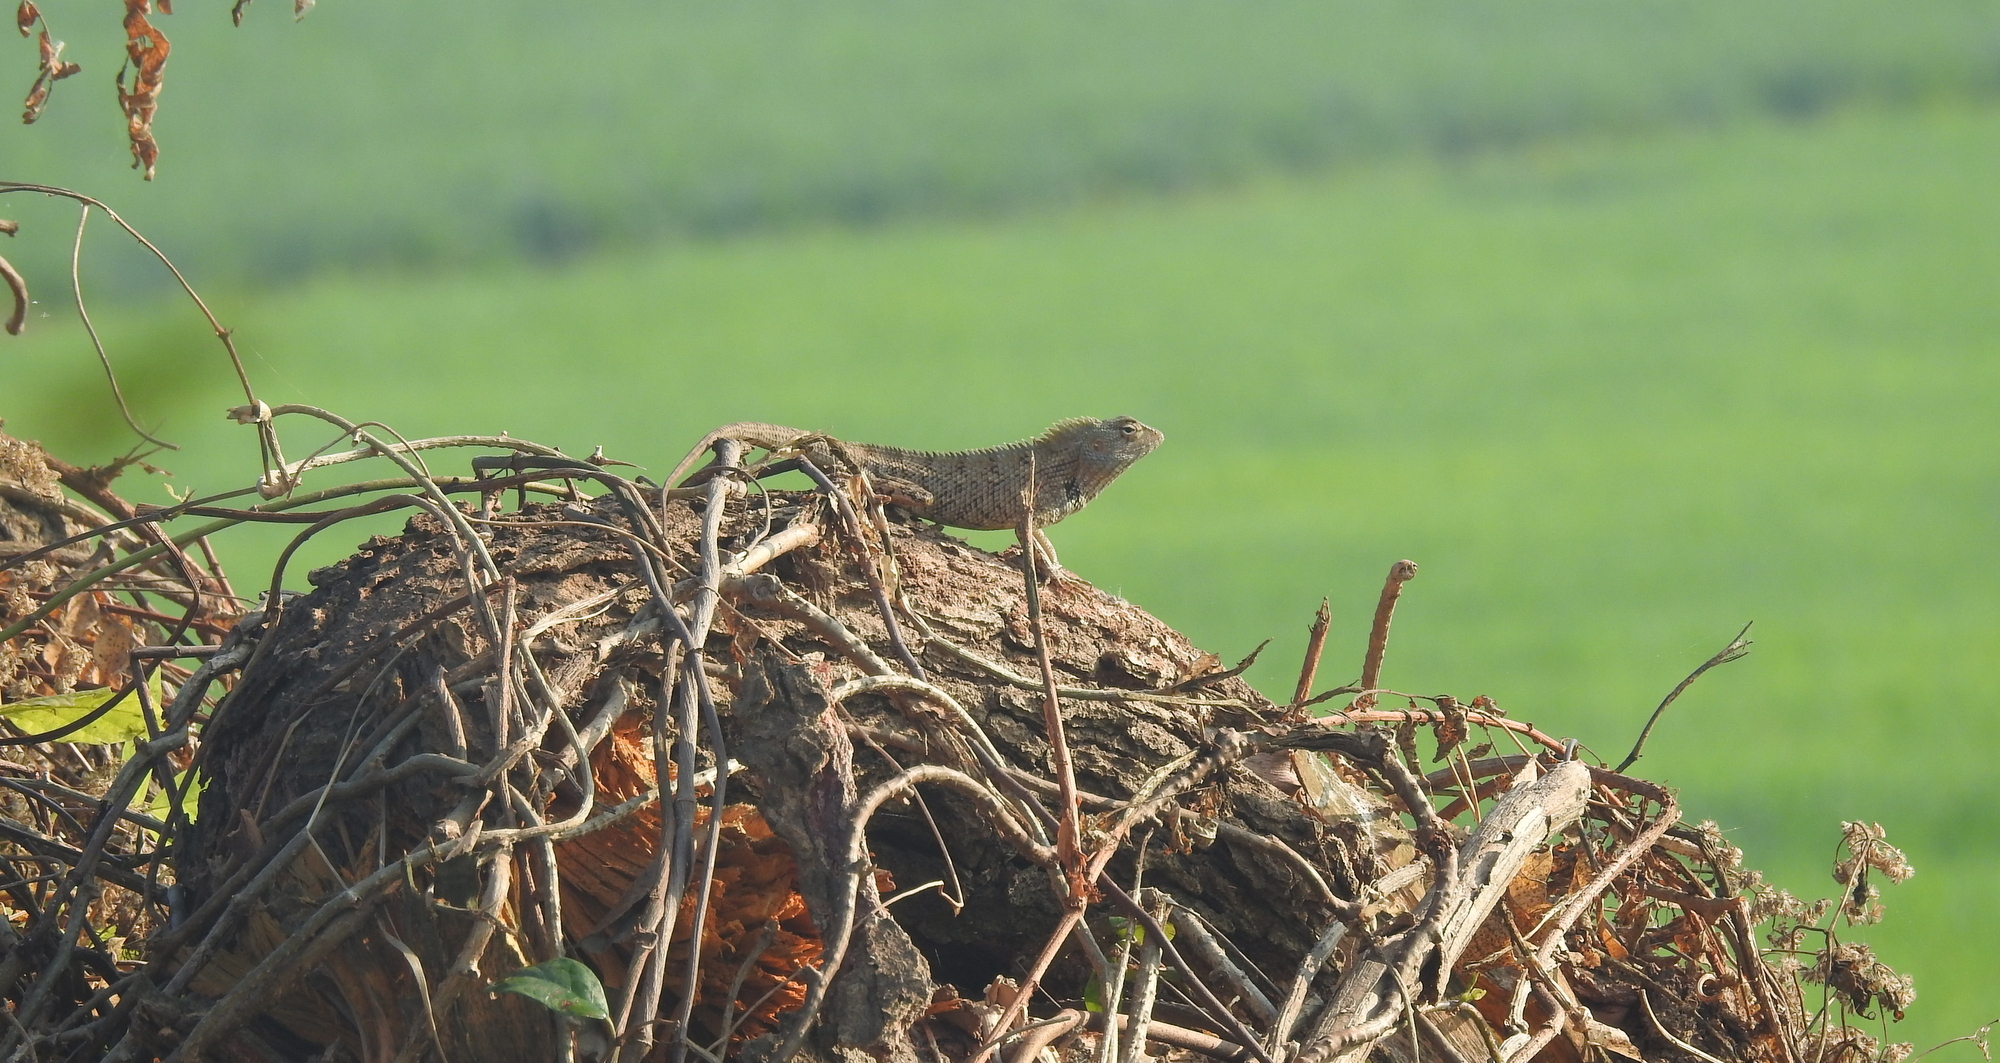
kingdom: Animalia
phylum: Chordata
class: Squamata
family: Agamidae
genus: Calotes
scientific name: Calotes versicolor
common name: Oriental garden lizard
